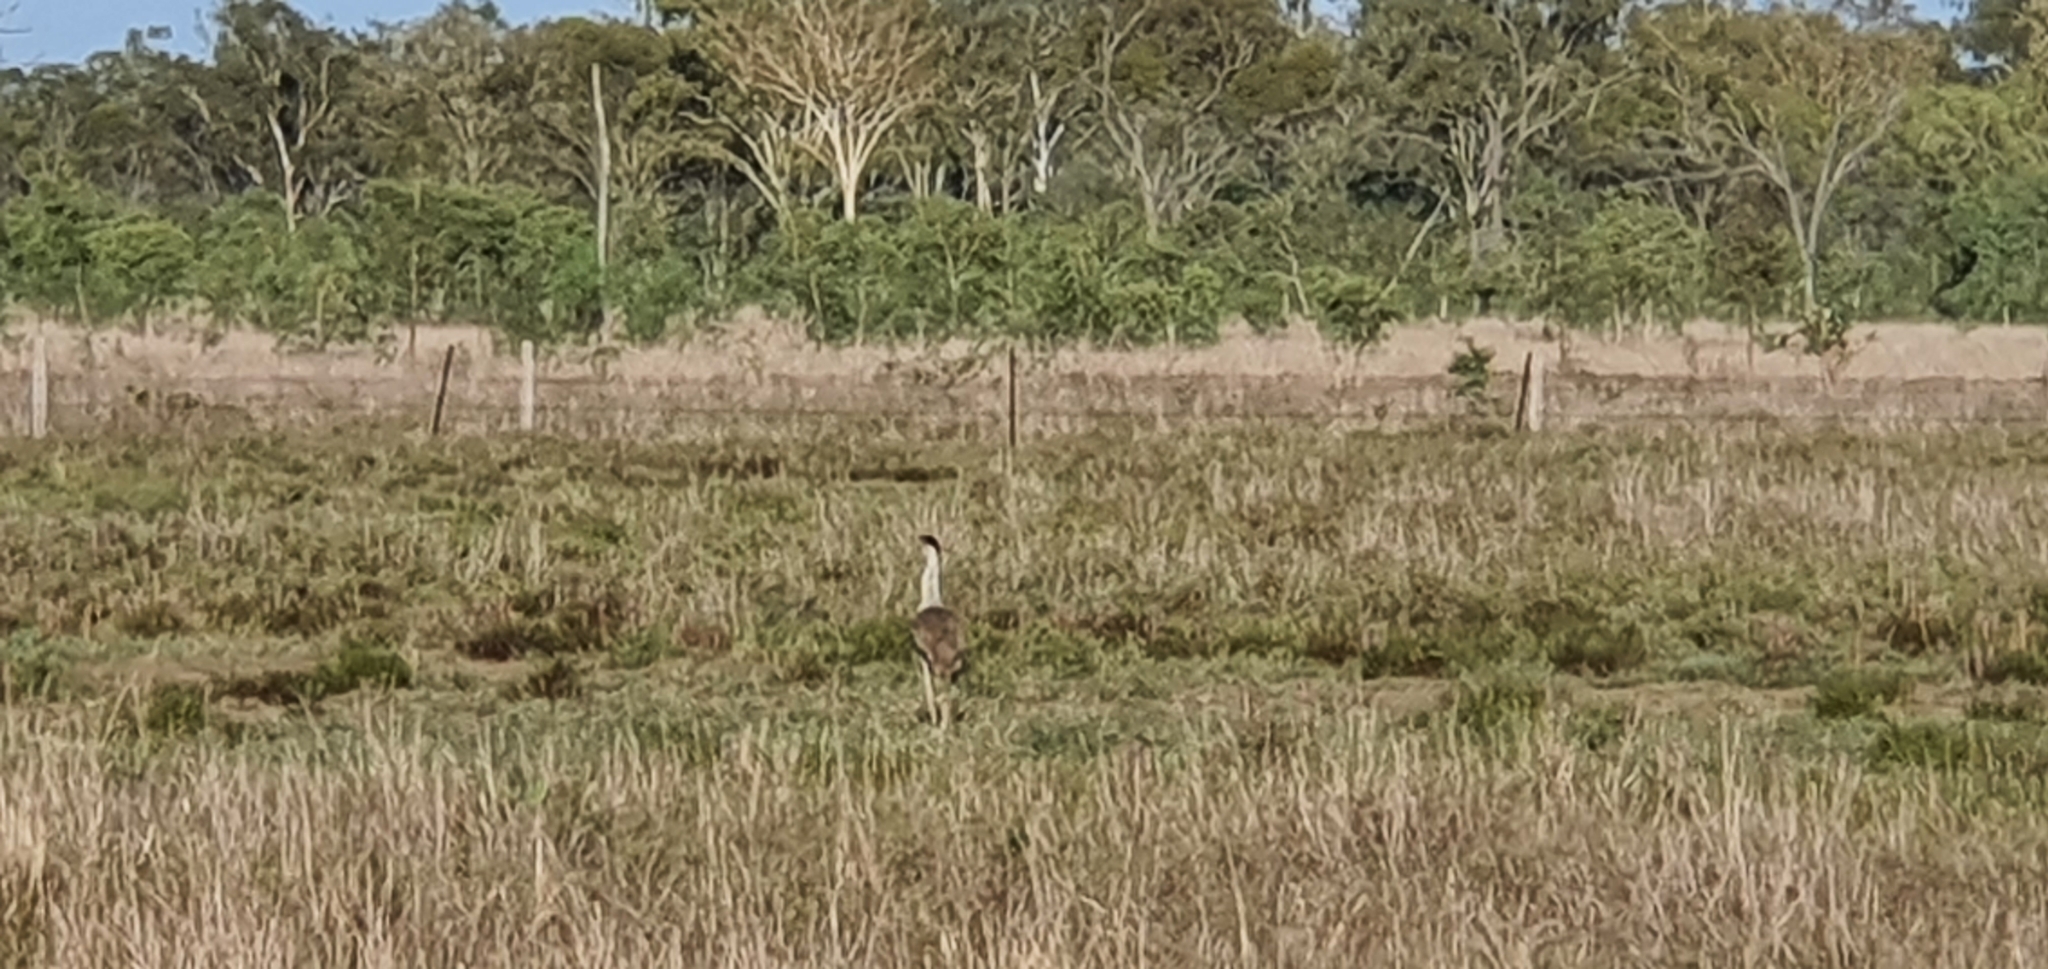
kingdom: Animalia
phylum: Chordata
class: Aves
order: Otidiformes
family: Otididae
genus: Ardeotis
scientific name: Ardeotis australis
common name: Australian bustard
